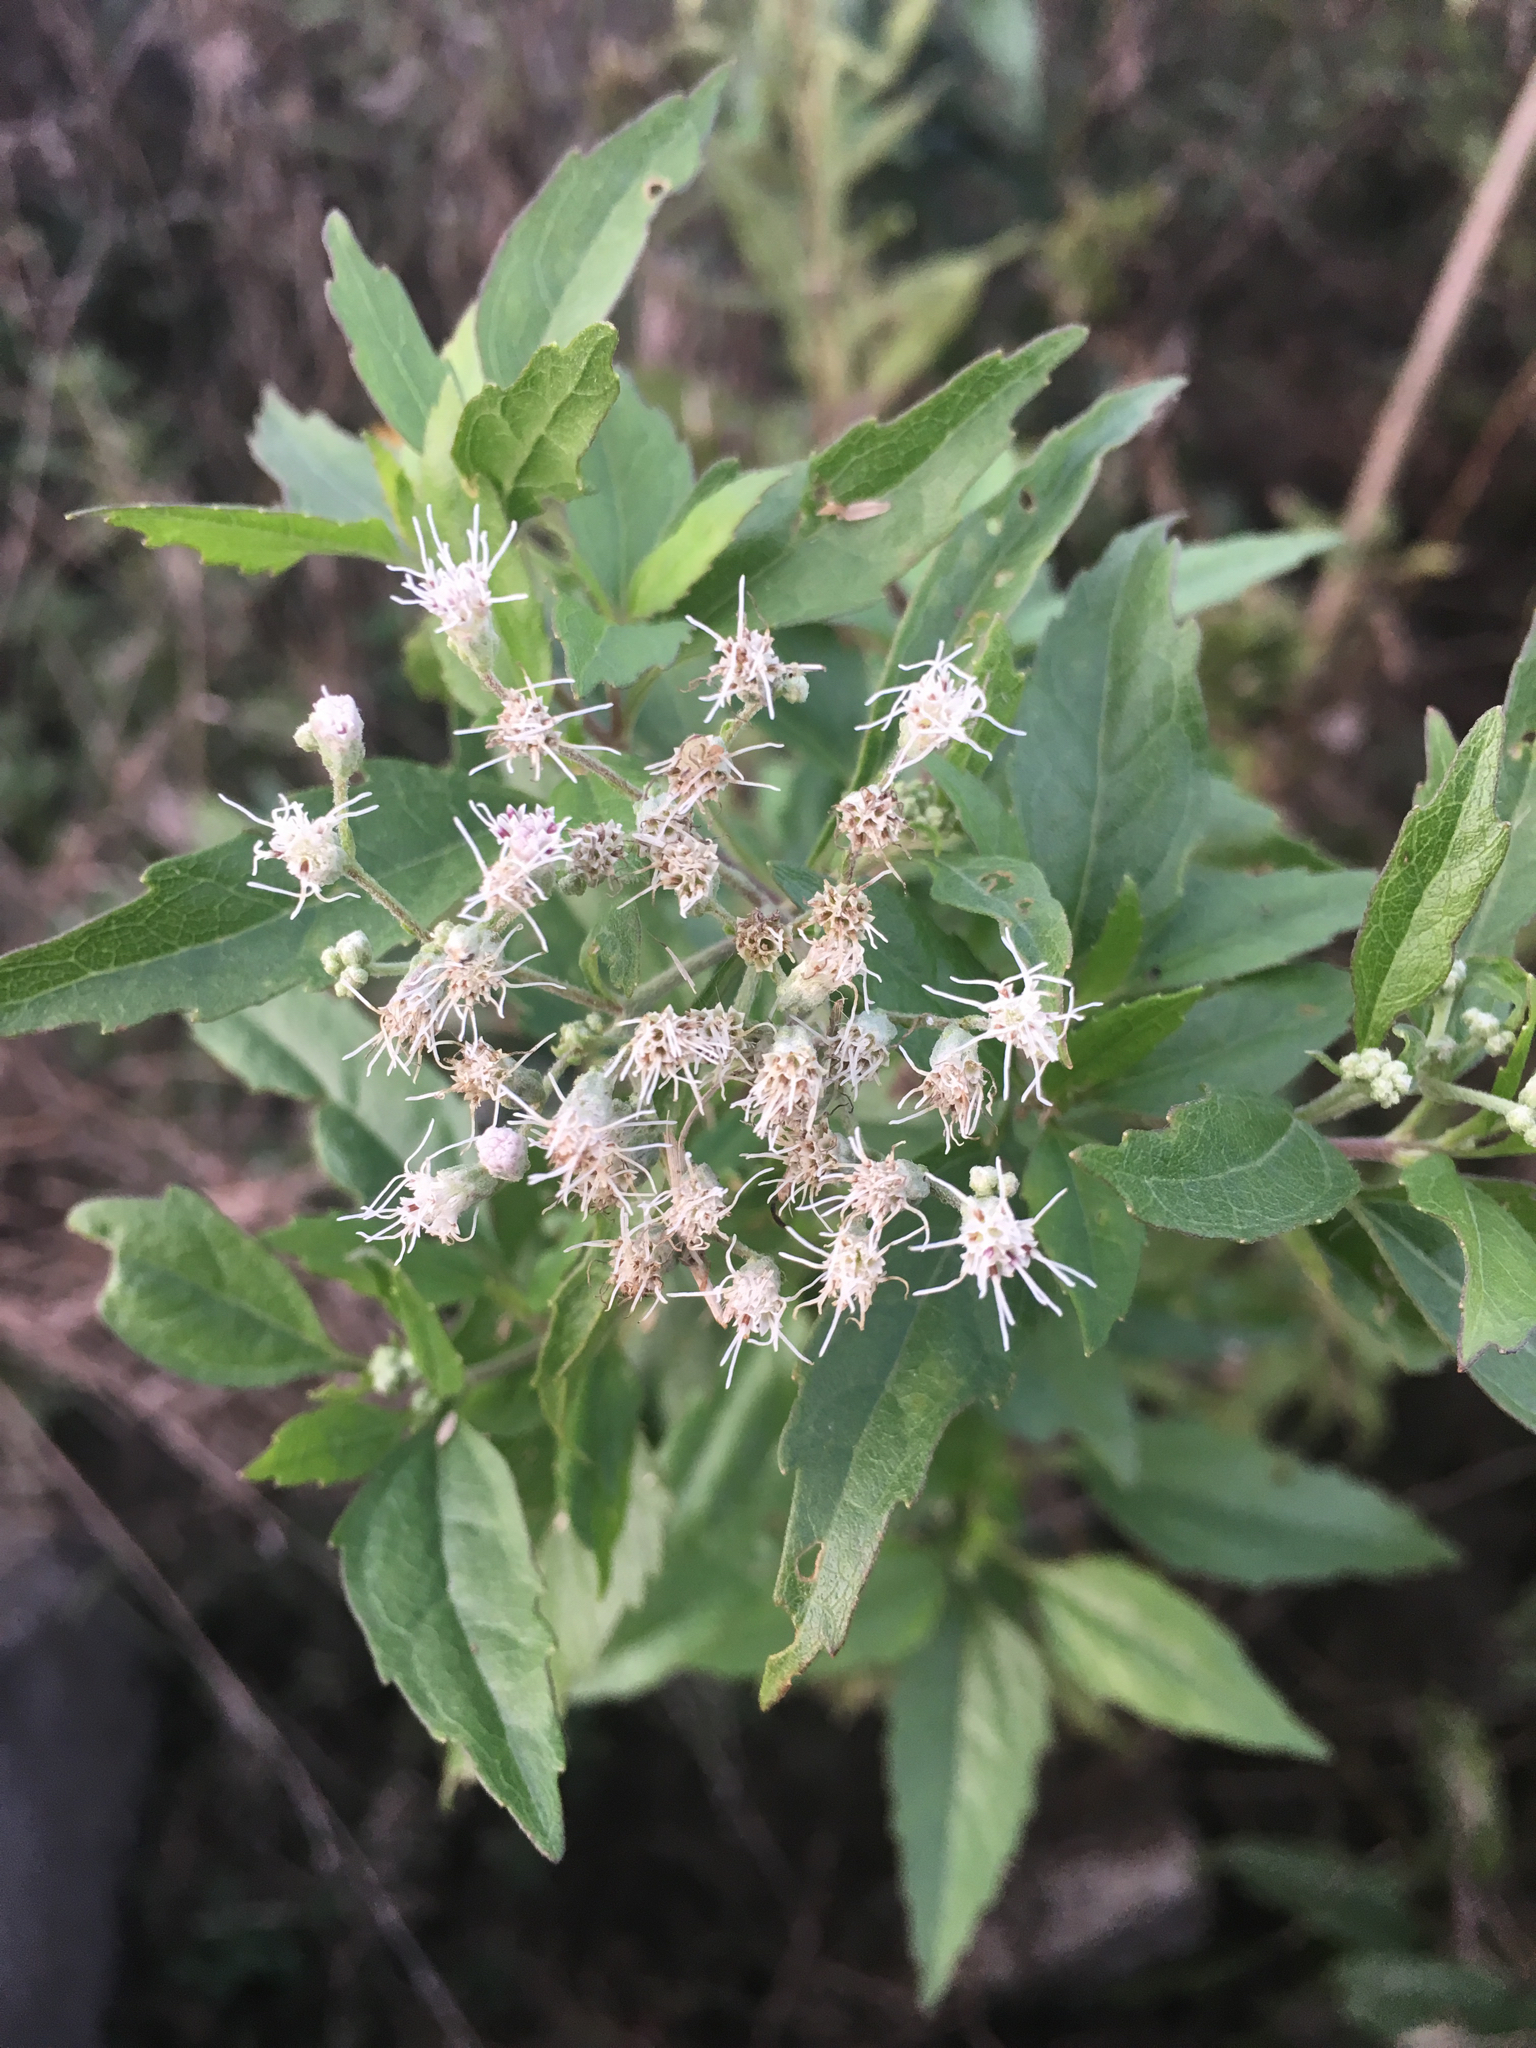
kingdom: Plantae
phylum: Tracheophyta
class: Magnoliopsida
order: Asterales
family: Asteraceae
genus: Eupatorium
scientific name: Eupatorium serotinum
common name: Late boneset
